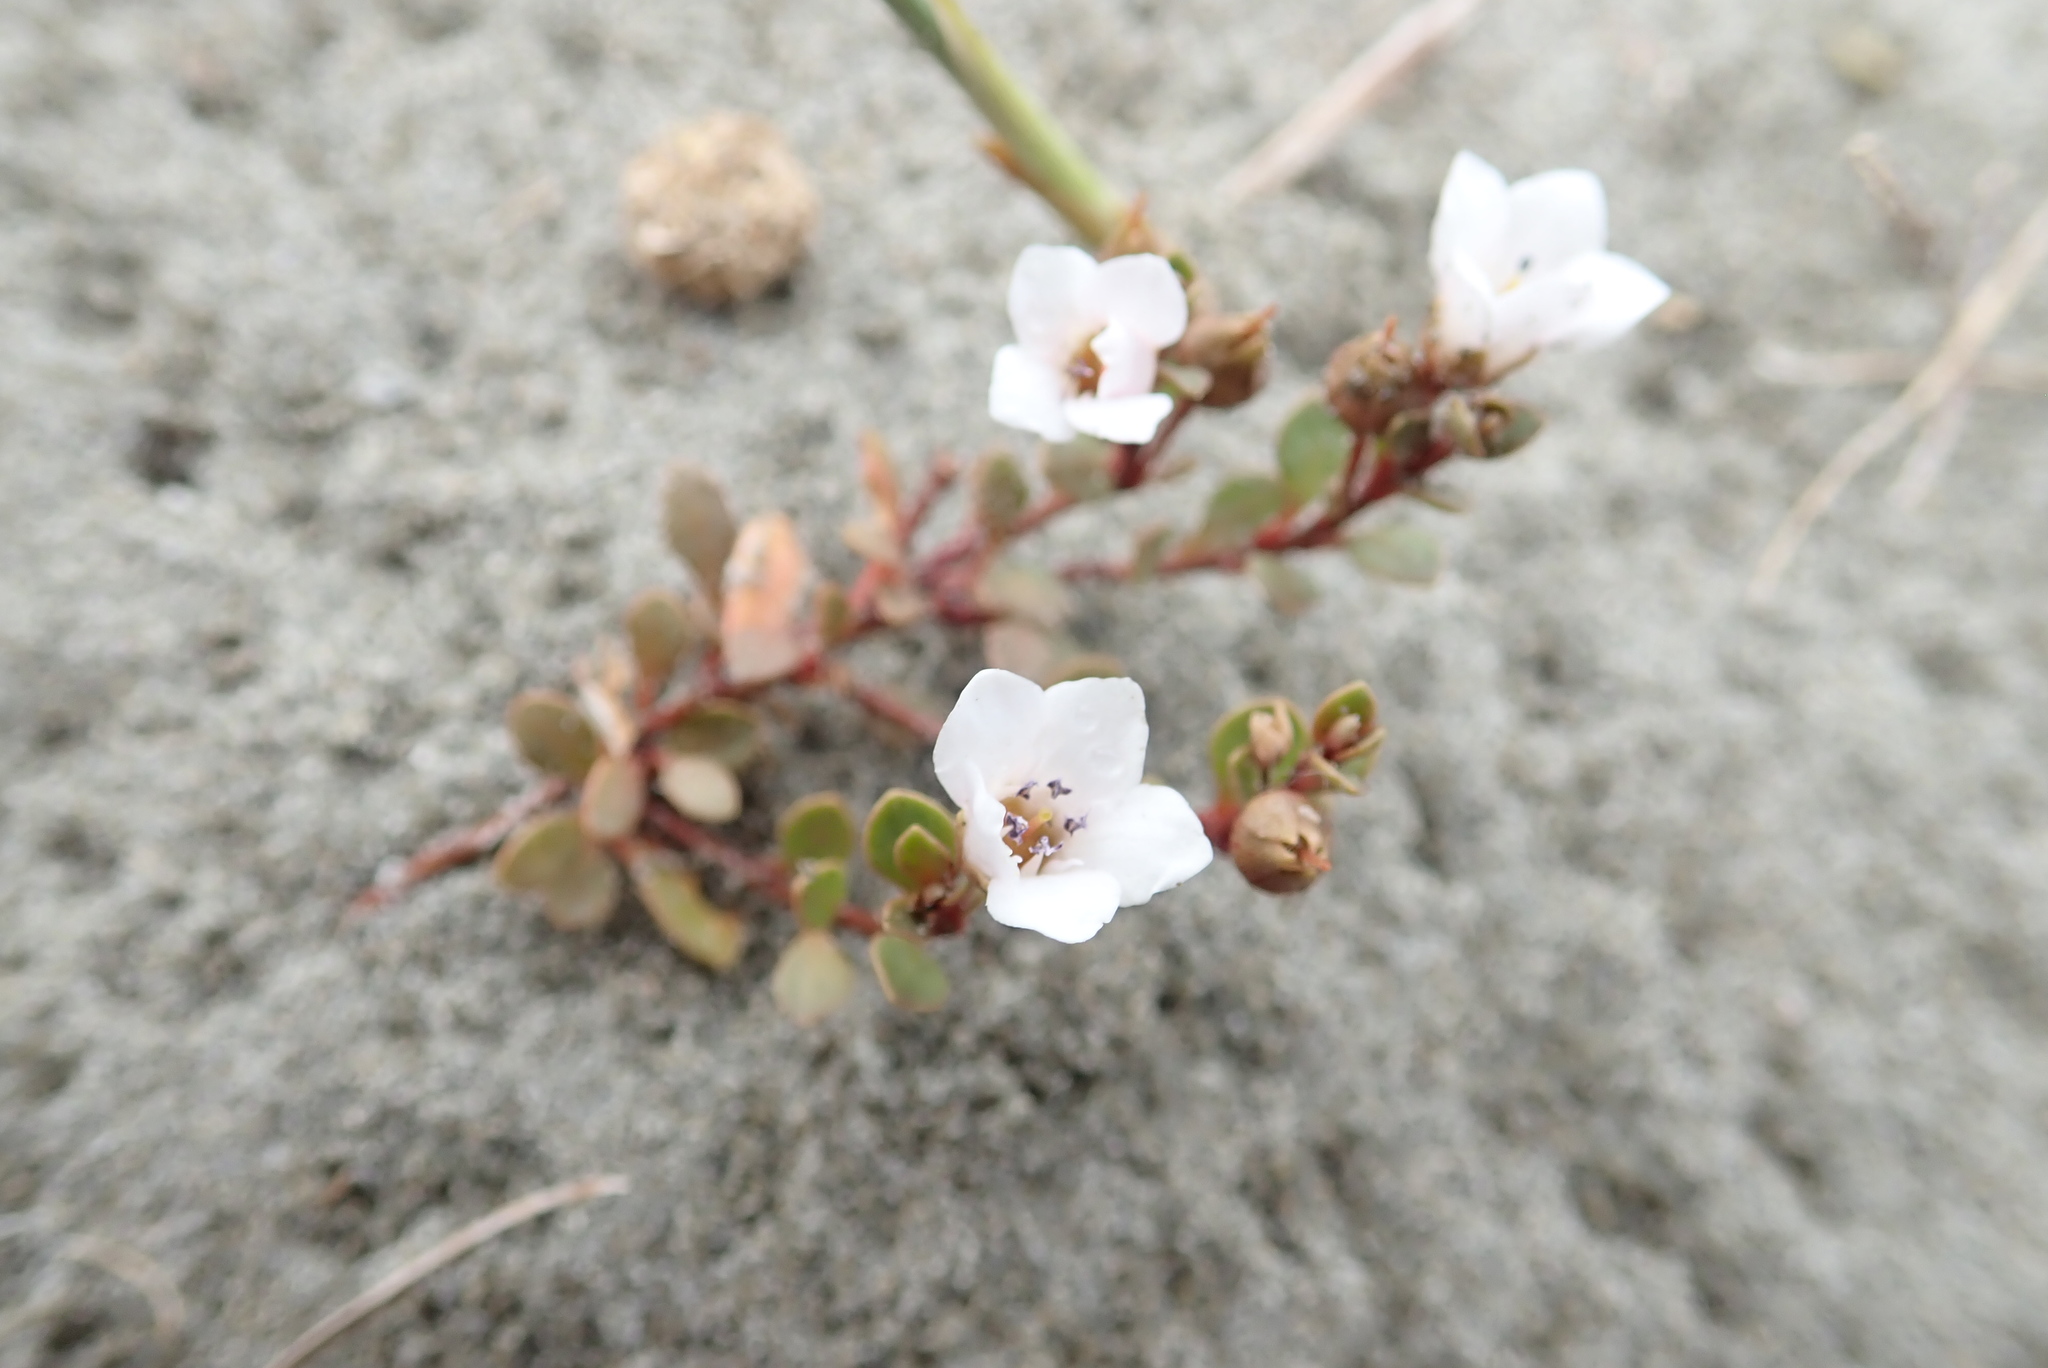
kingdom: Plantae
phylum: Tracheophyta
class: Magnoliopsida
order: Ericales
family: Primulaceae
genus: Samolus
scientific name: Samolus repens
